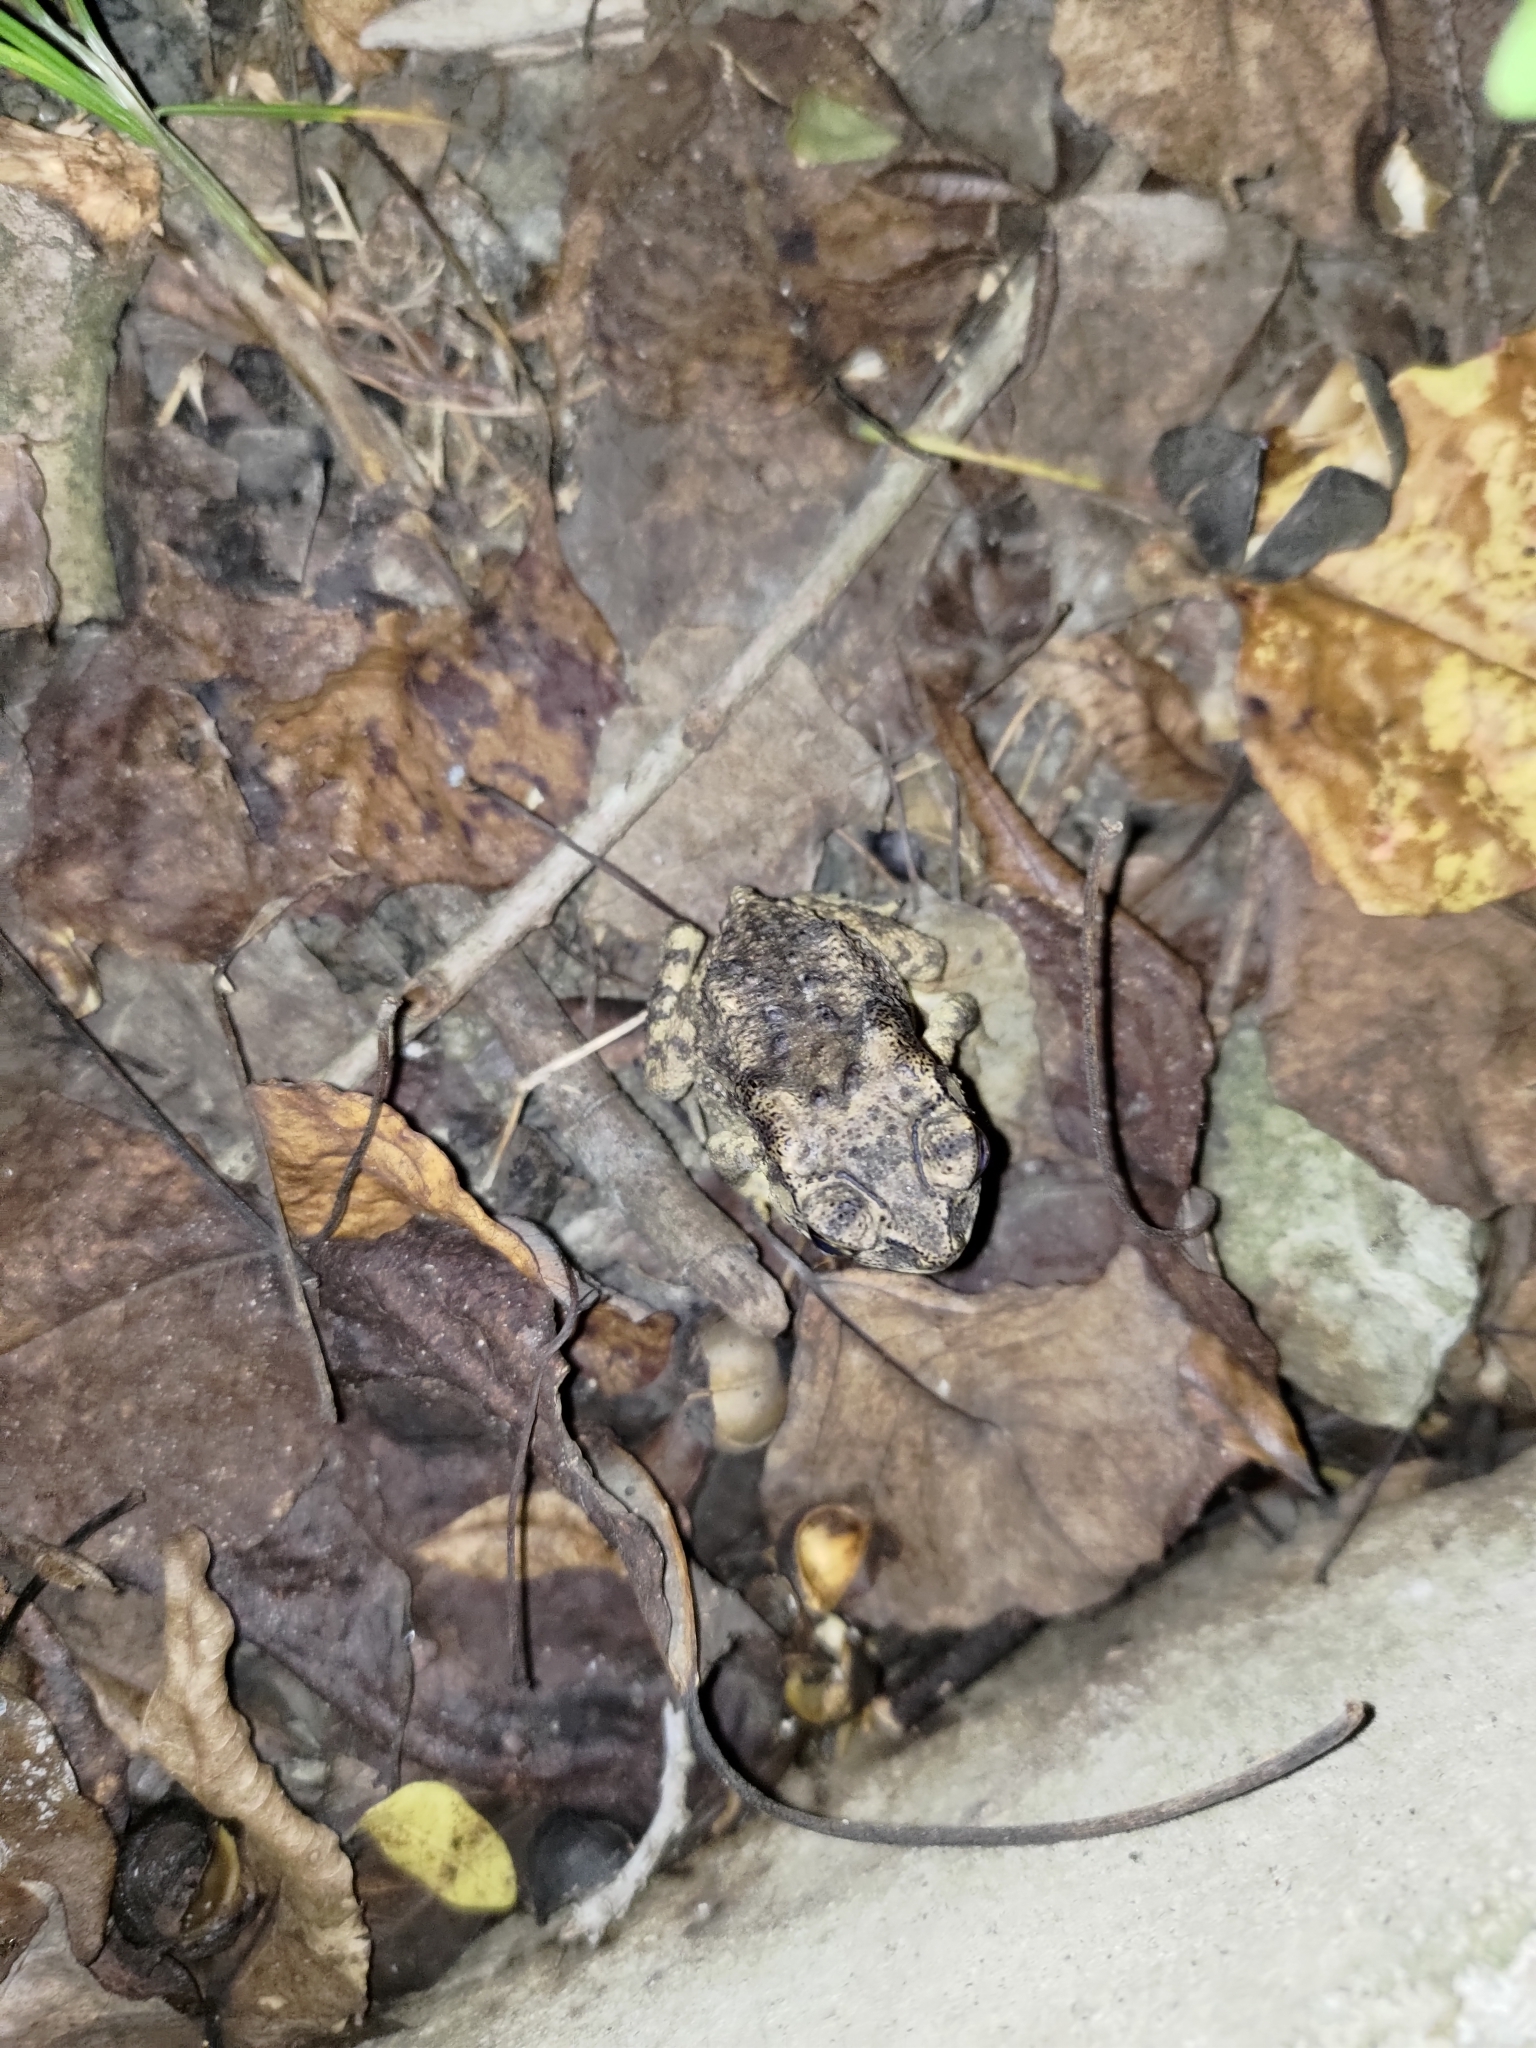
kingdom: Animalia
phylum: Chordata
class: Amphibia
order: Anura
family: Bufonidae
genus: Duttaphrynus
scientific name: Duttaphrynus melanostictus
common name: Common sunda toad
